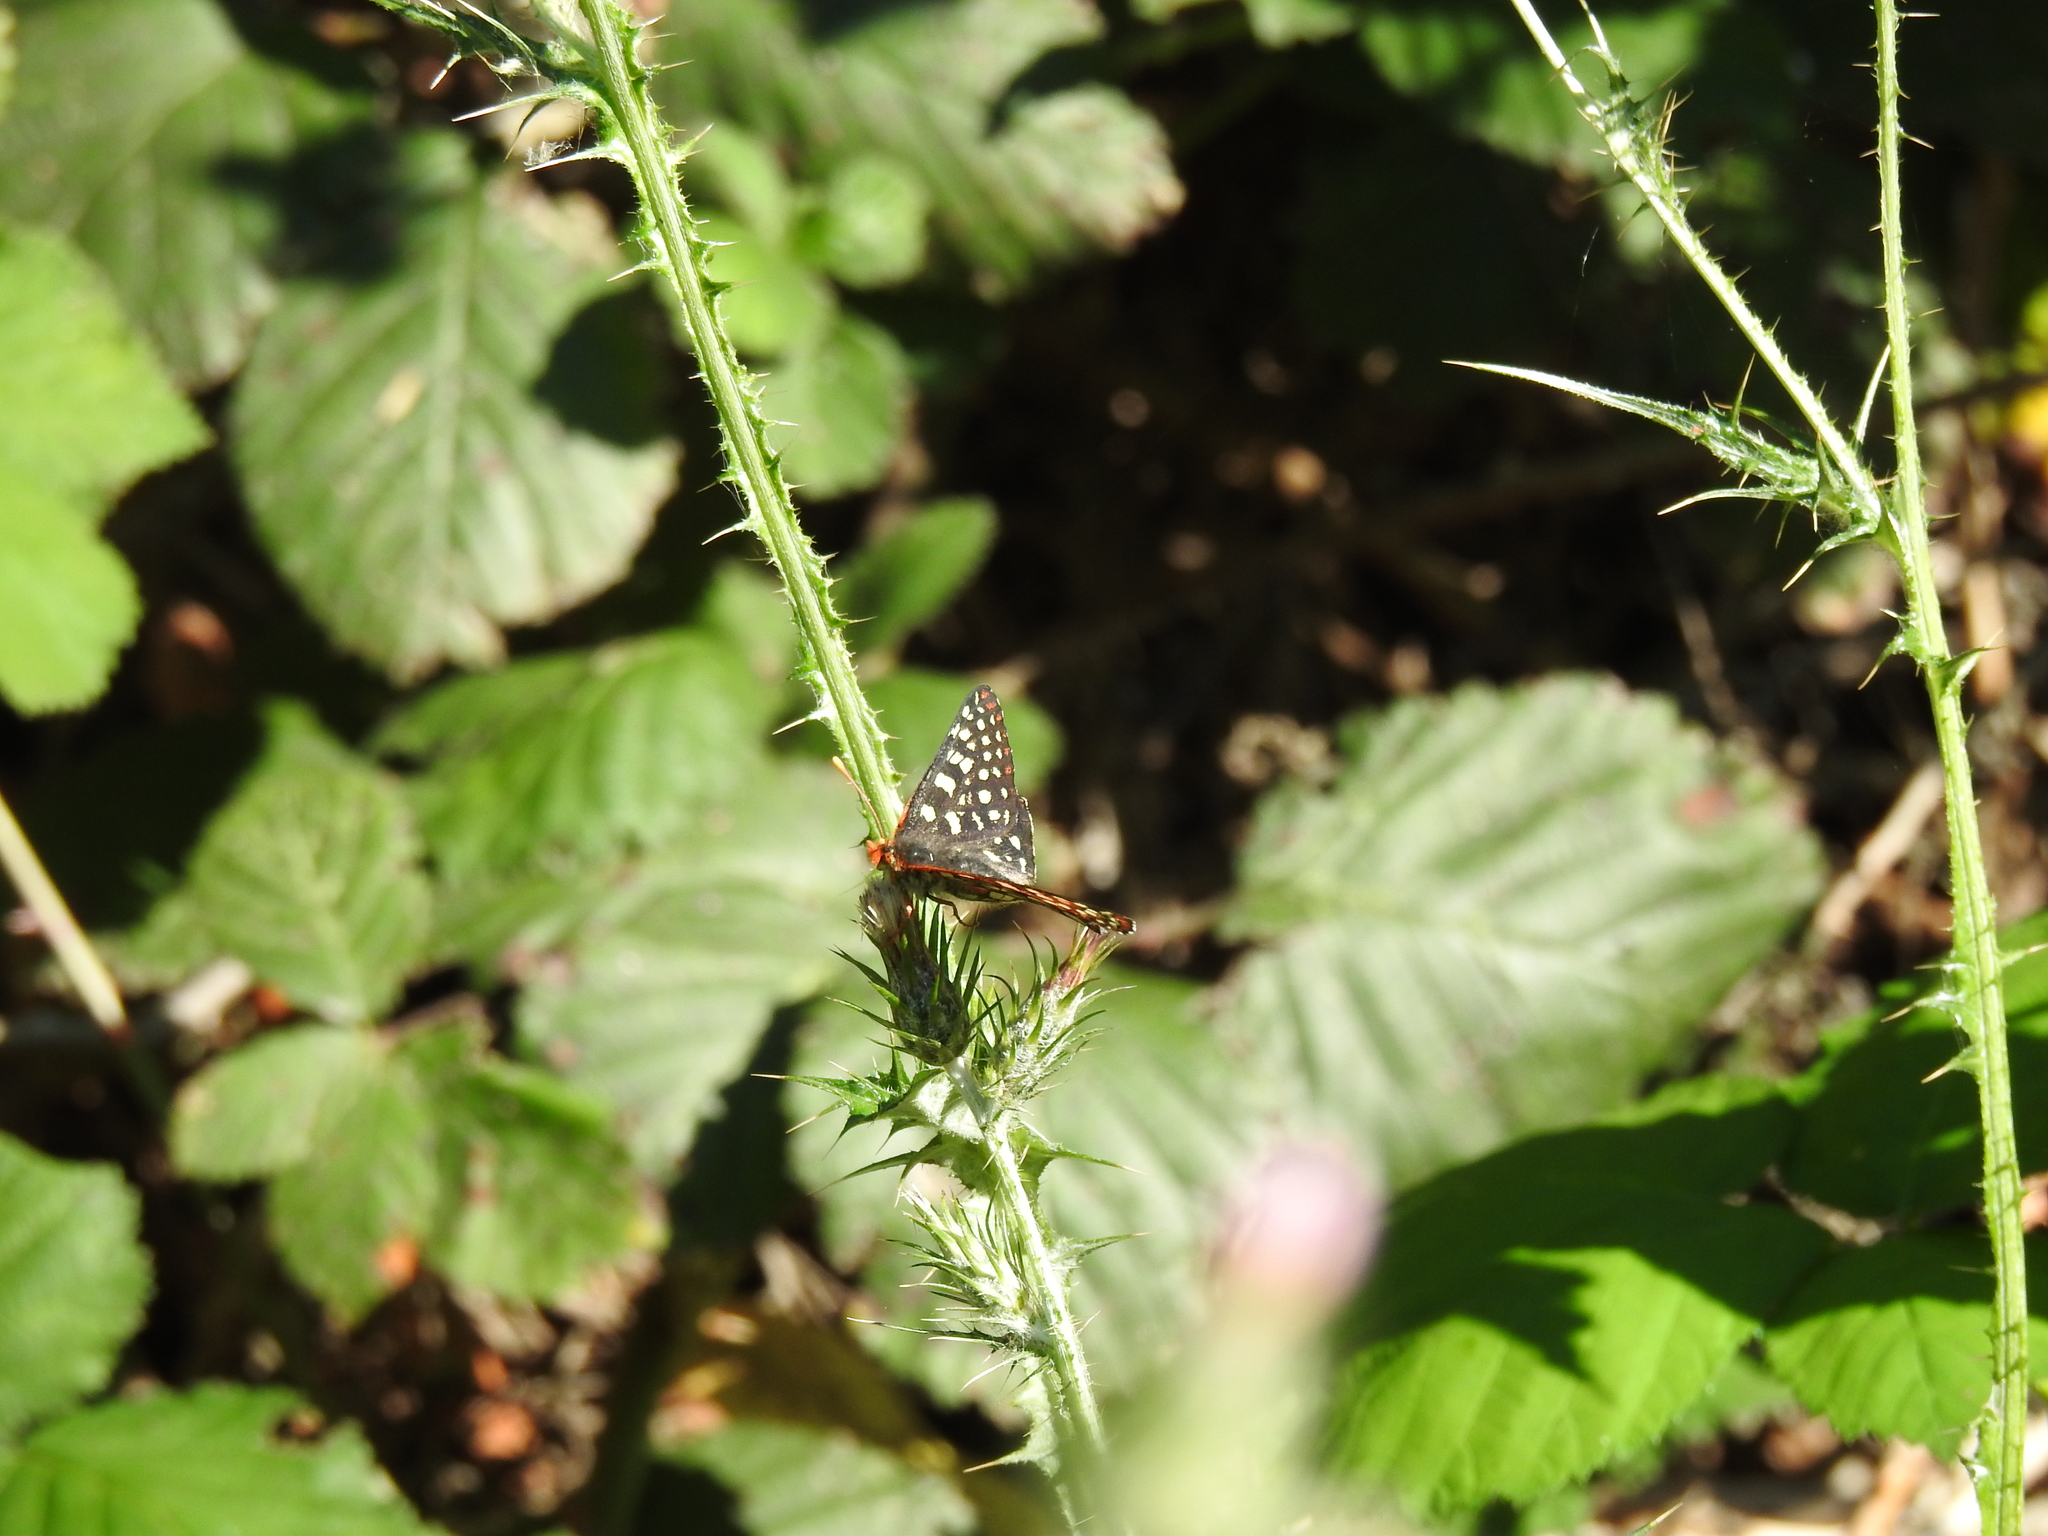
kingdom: Animalia
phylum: Arthropoda
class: Insecta
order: Lepidoptera
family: Nymphalidae
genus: Occidryas
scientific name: Occidryas chalcedona
